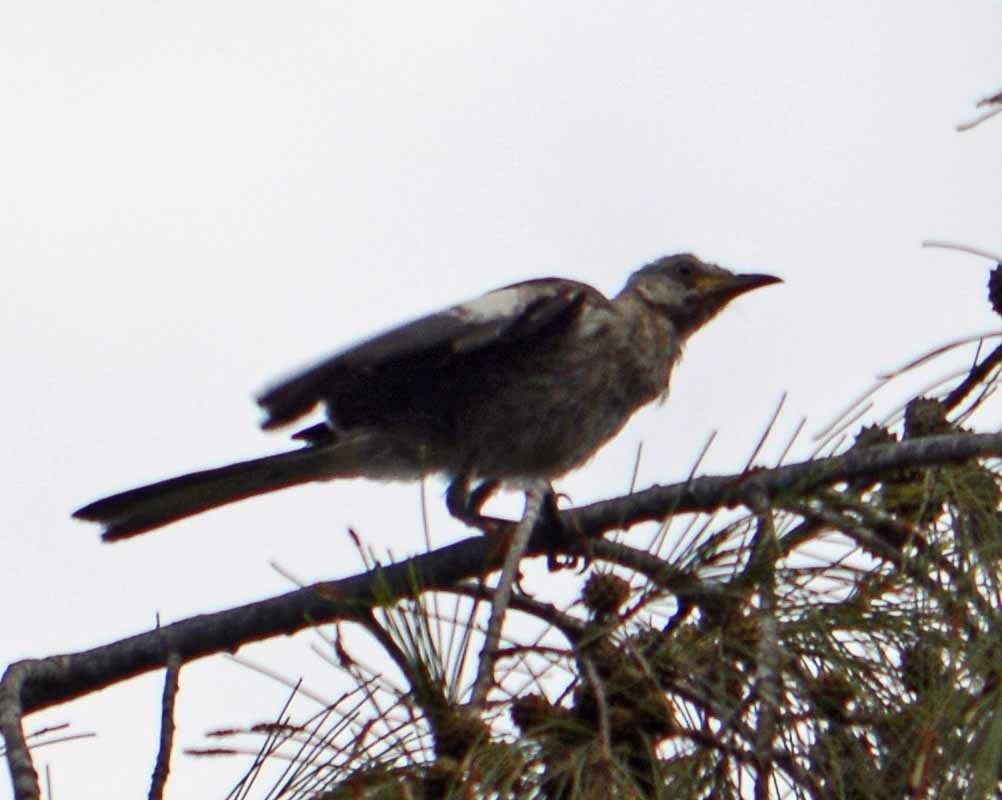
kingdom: Animalia
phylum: Chordata
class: Aves
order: Passeriformes
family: Mimidae
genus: Mimus
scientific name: Mimus polyglottos
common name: Northern mockingbird
